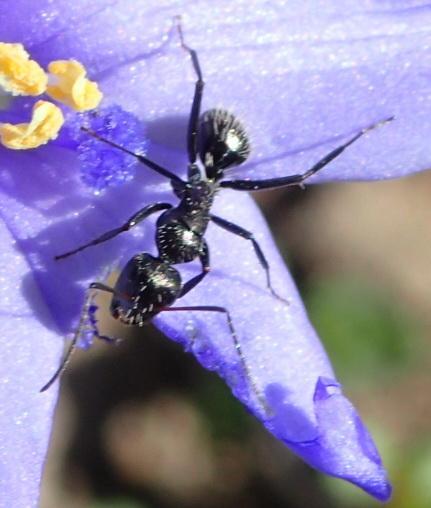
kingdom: Animalia
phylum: Arthropoda
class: Insecta
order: Hymenoptera
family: Formicidae
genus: Camponotus
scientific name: Camponotus niveosetosus
